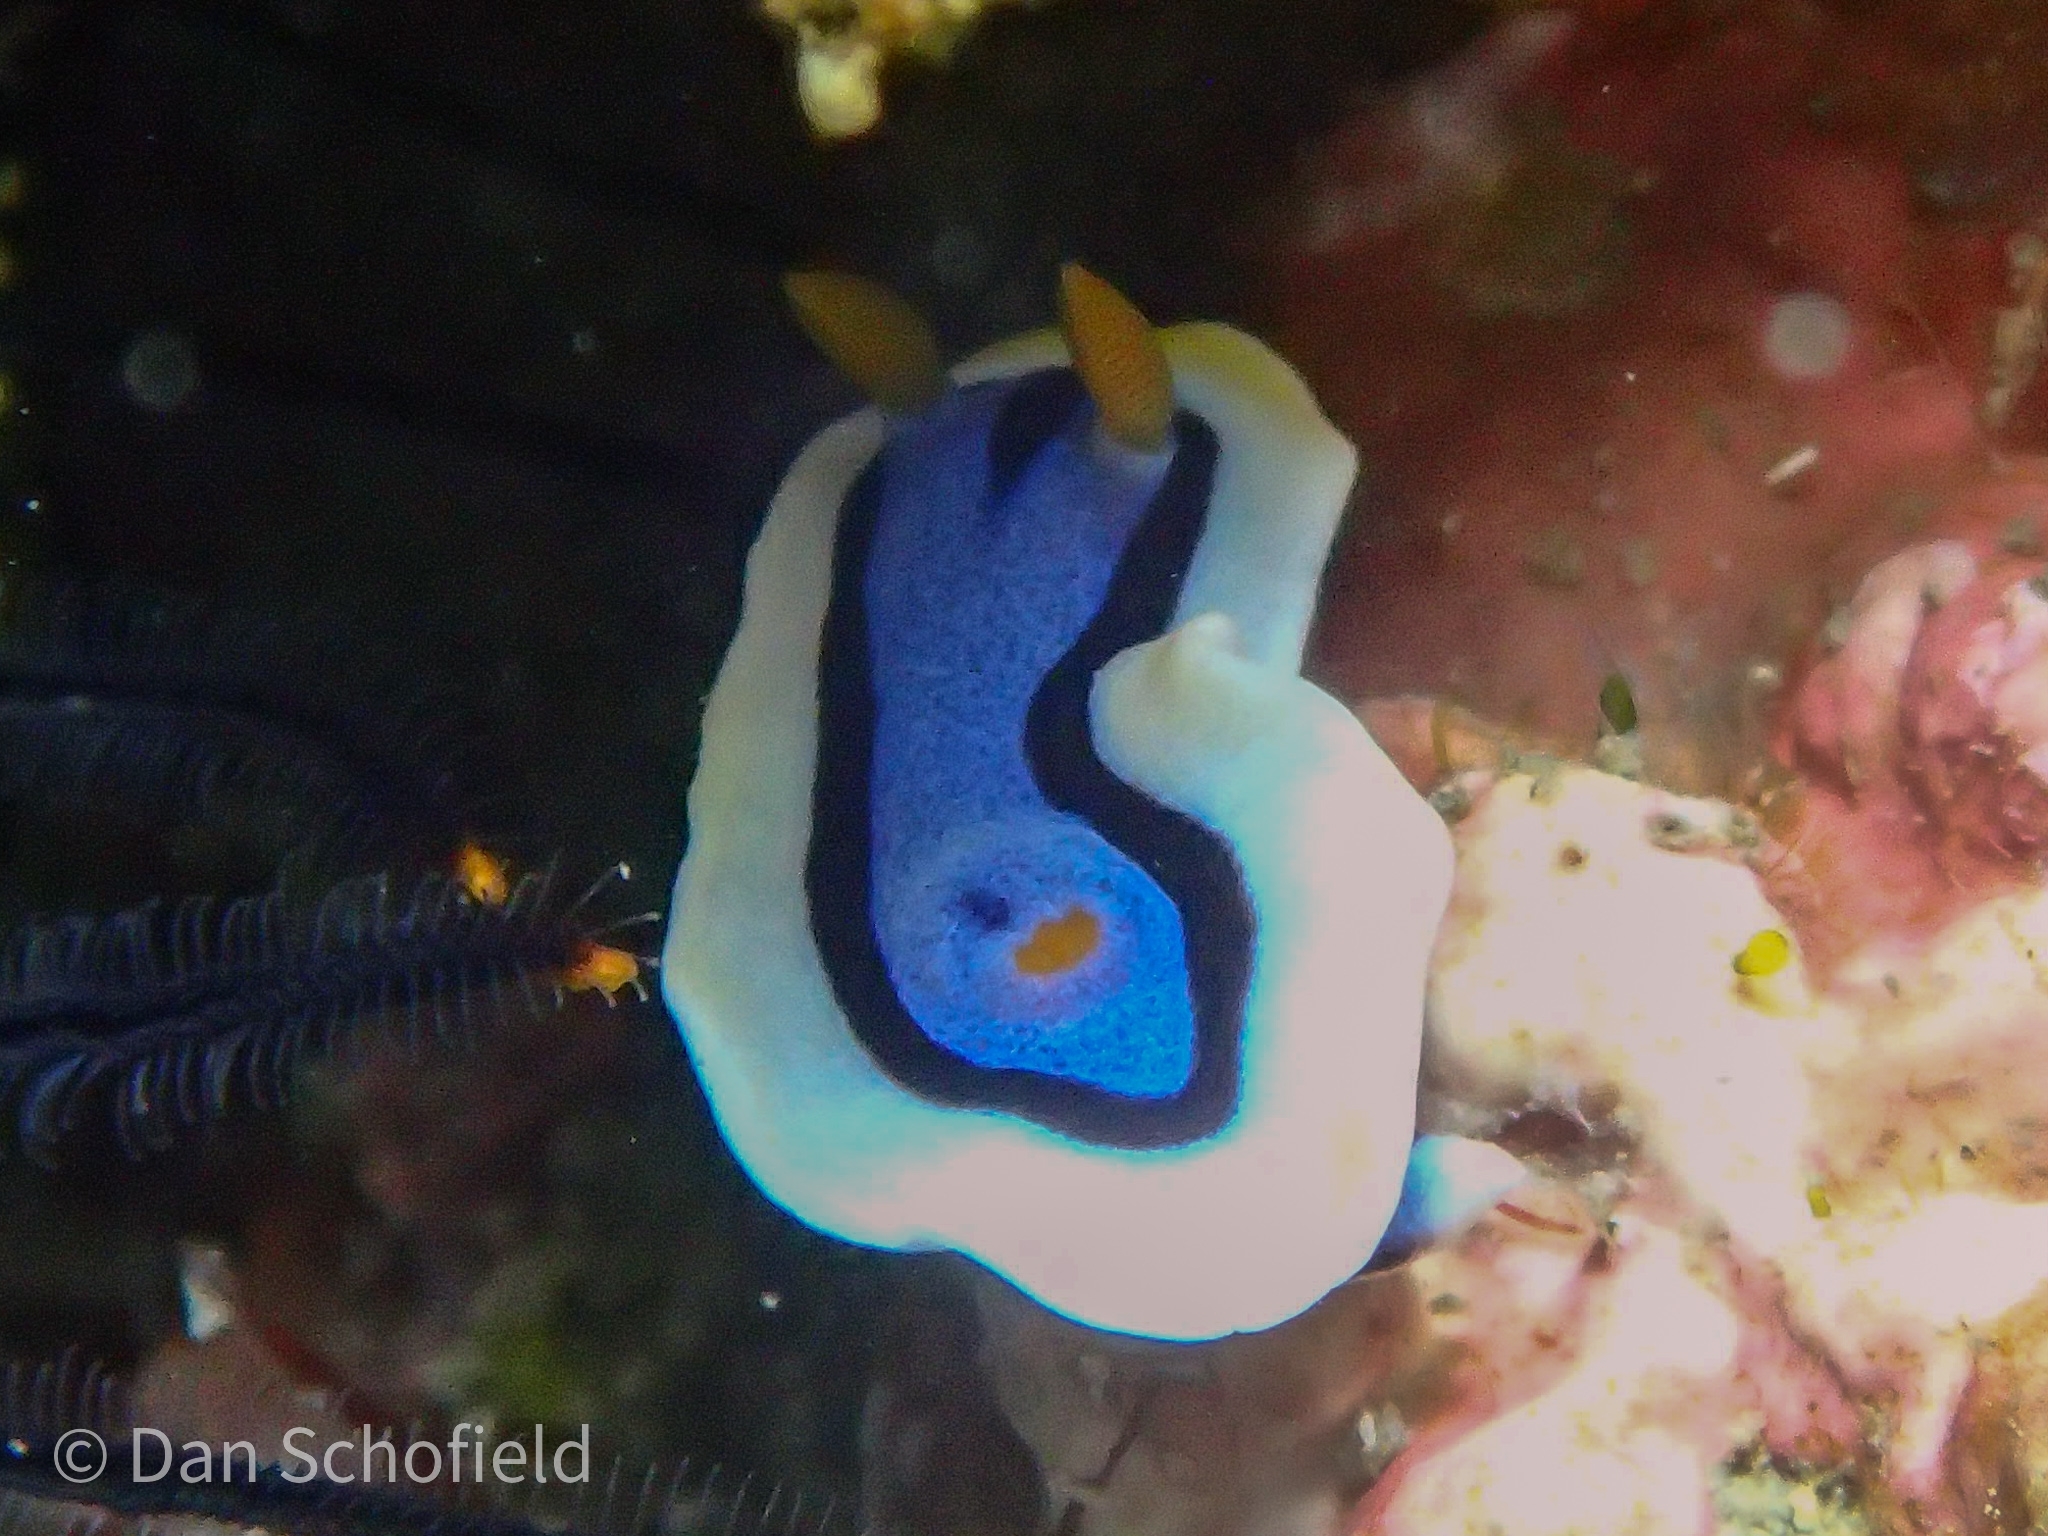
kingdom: Animalia
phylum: Mollusca
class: Gastropoda
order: Nudibranchia
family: Chromodorididae
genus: Chromodoris
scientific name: Chromodoris annae
